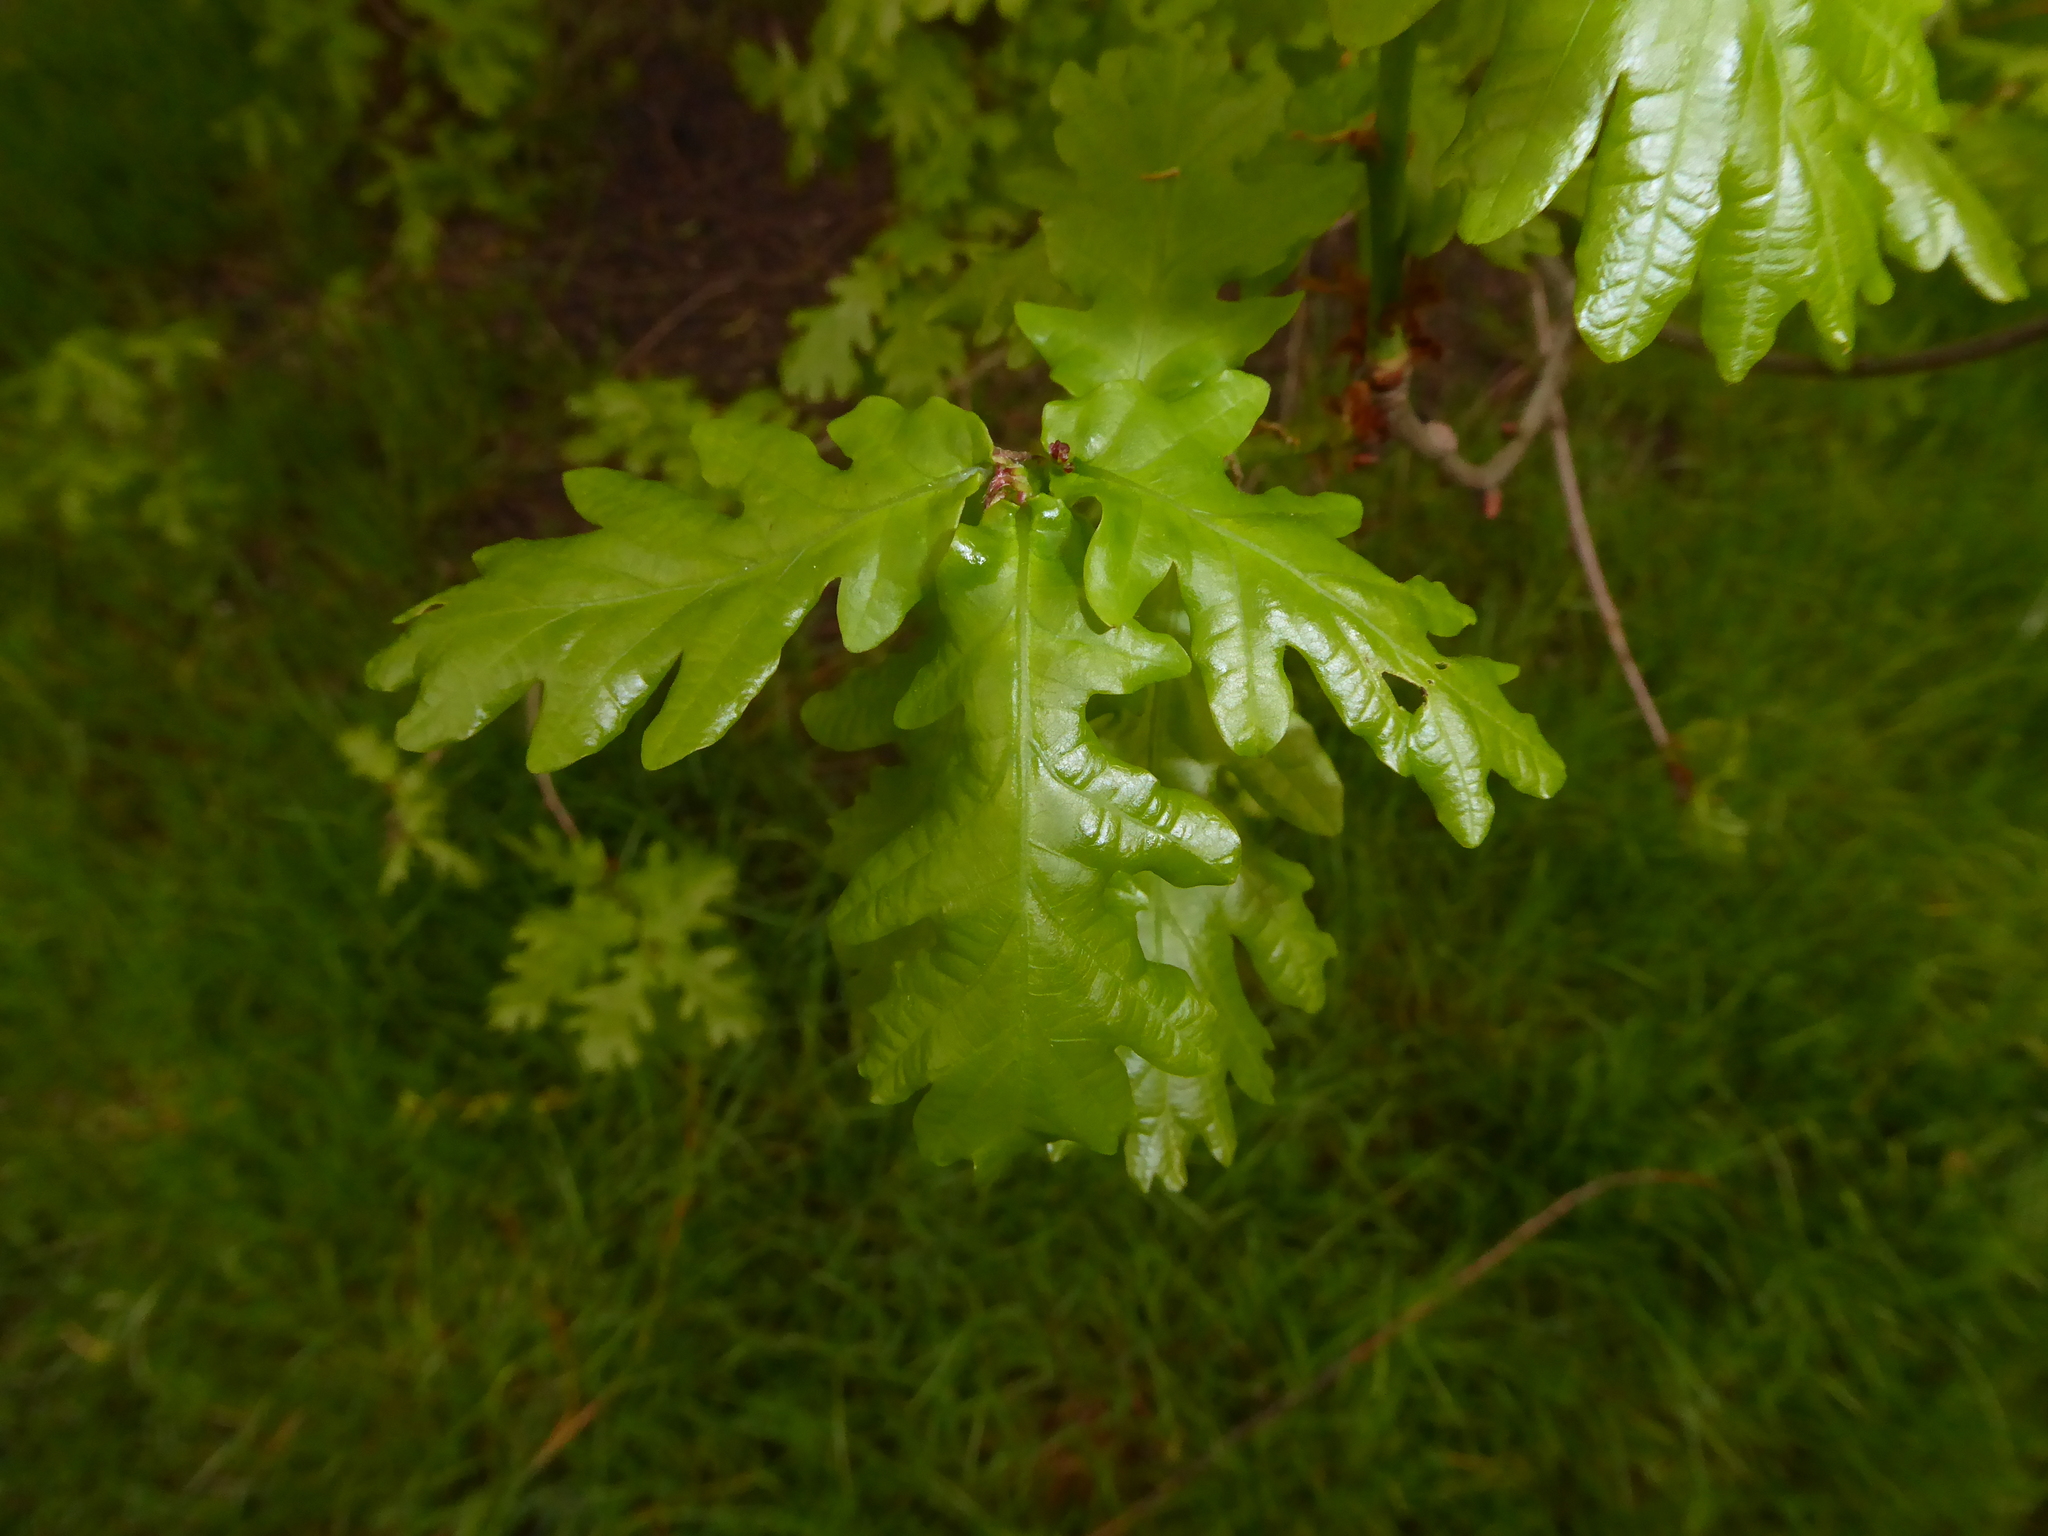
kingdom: Plantae
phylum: Tracheophyta
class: Magnoliopsida
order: Fagales
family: Fagaceae
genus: Quercus
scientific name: Quercus robur
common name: Pedunculate oak
